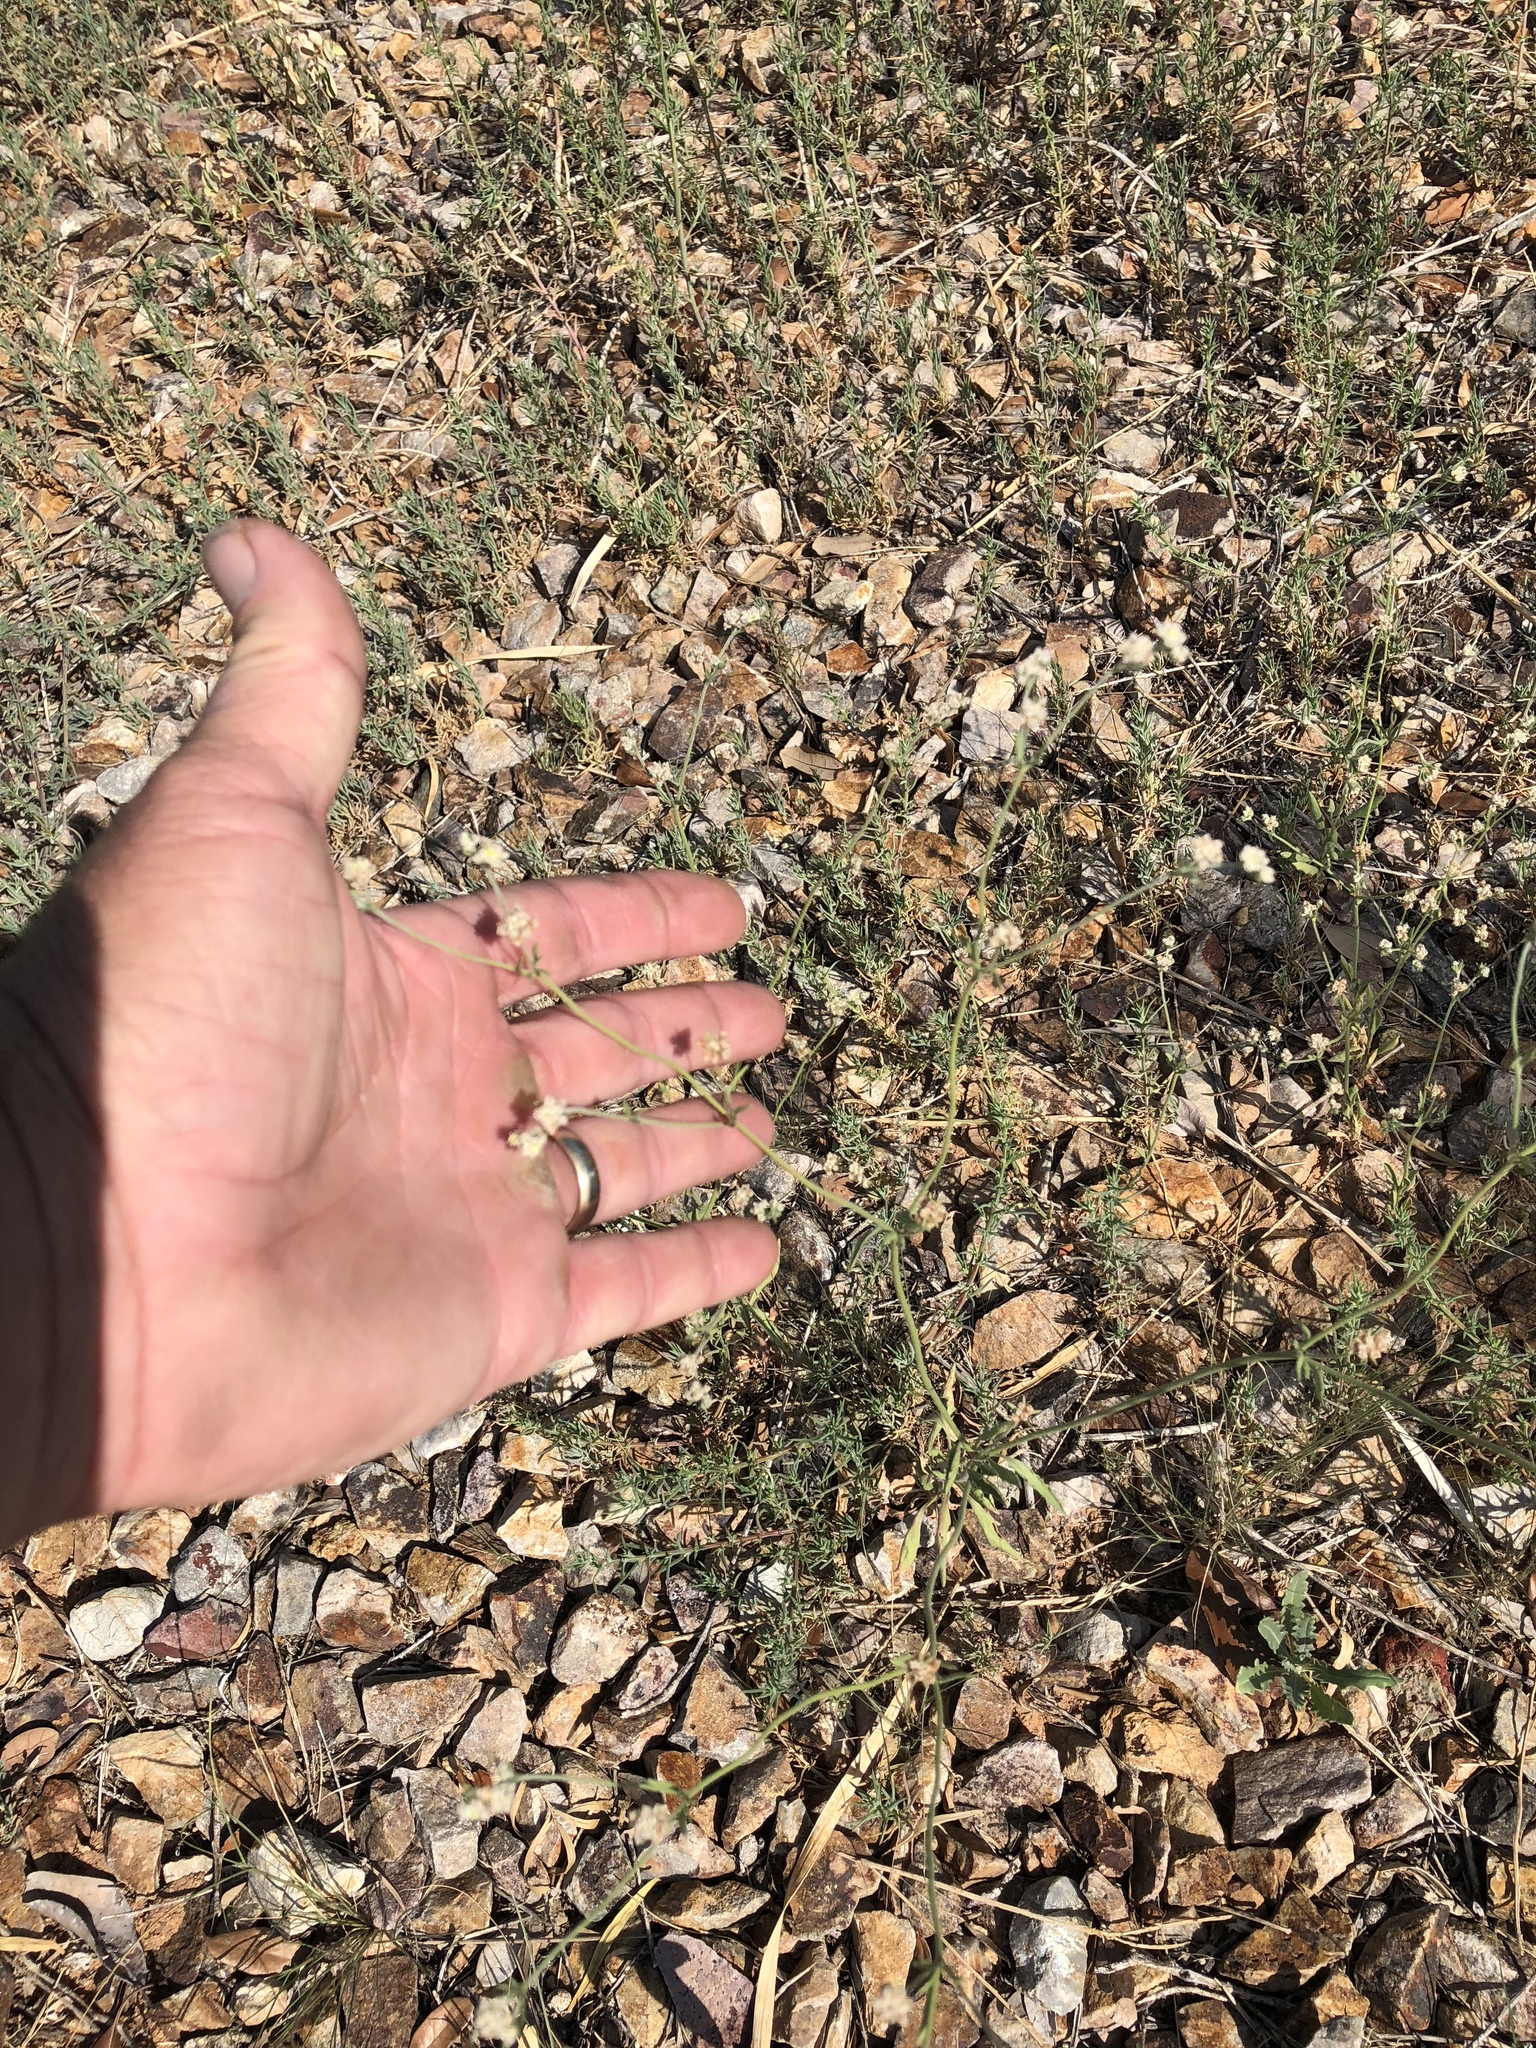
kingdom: Plantae
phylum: Tracheophyta
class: Magnoliopsida
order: Caryophyllales
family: Polygonaceae
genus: Eriogonum
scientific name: Eriogonum abertianum
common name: Abert's wild buckwheat
